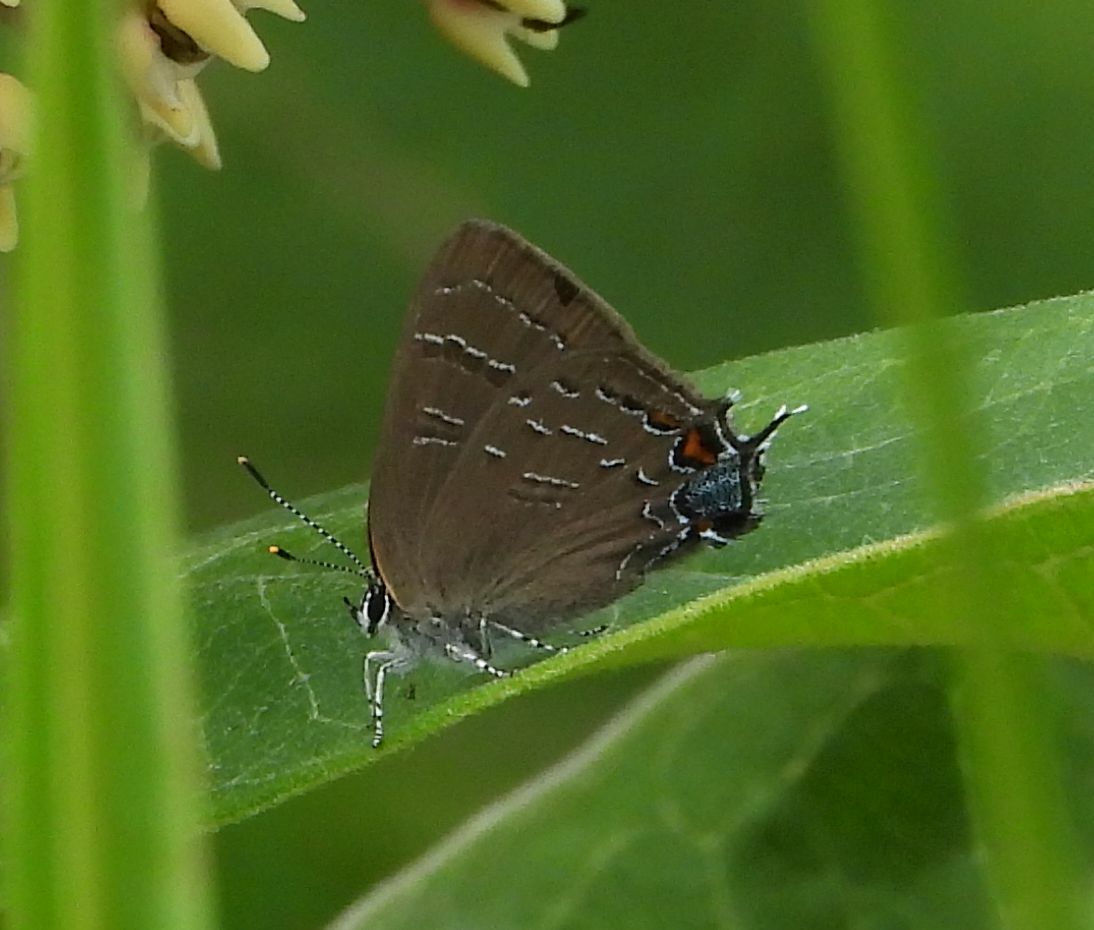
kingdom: Animalia
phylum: Arthropoda
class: Insecta
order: Lepidoptera
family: Lycaenidae
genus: Satyrium
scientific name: Satyrium calanus
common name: Banded hairstreak
